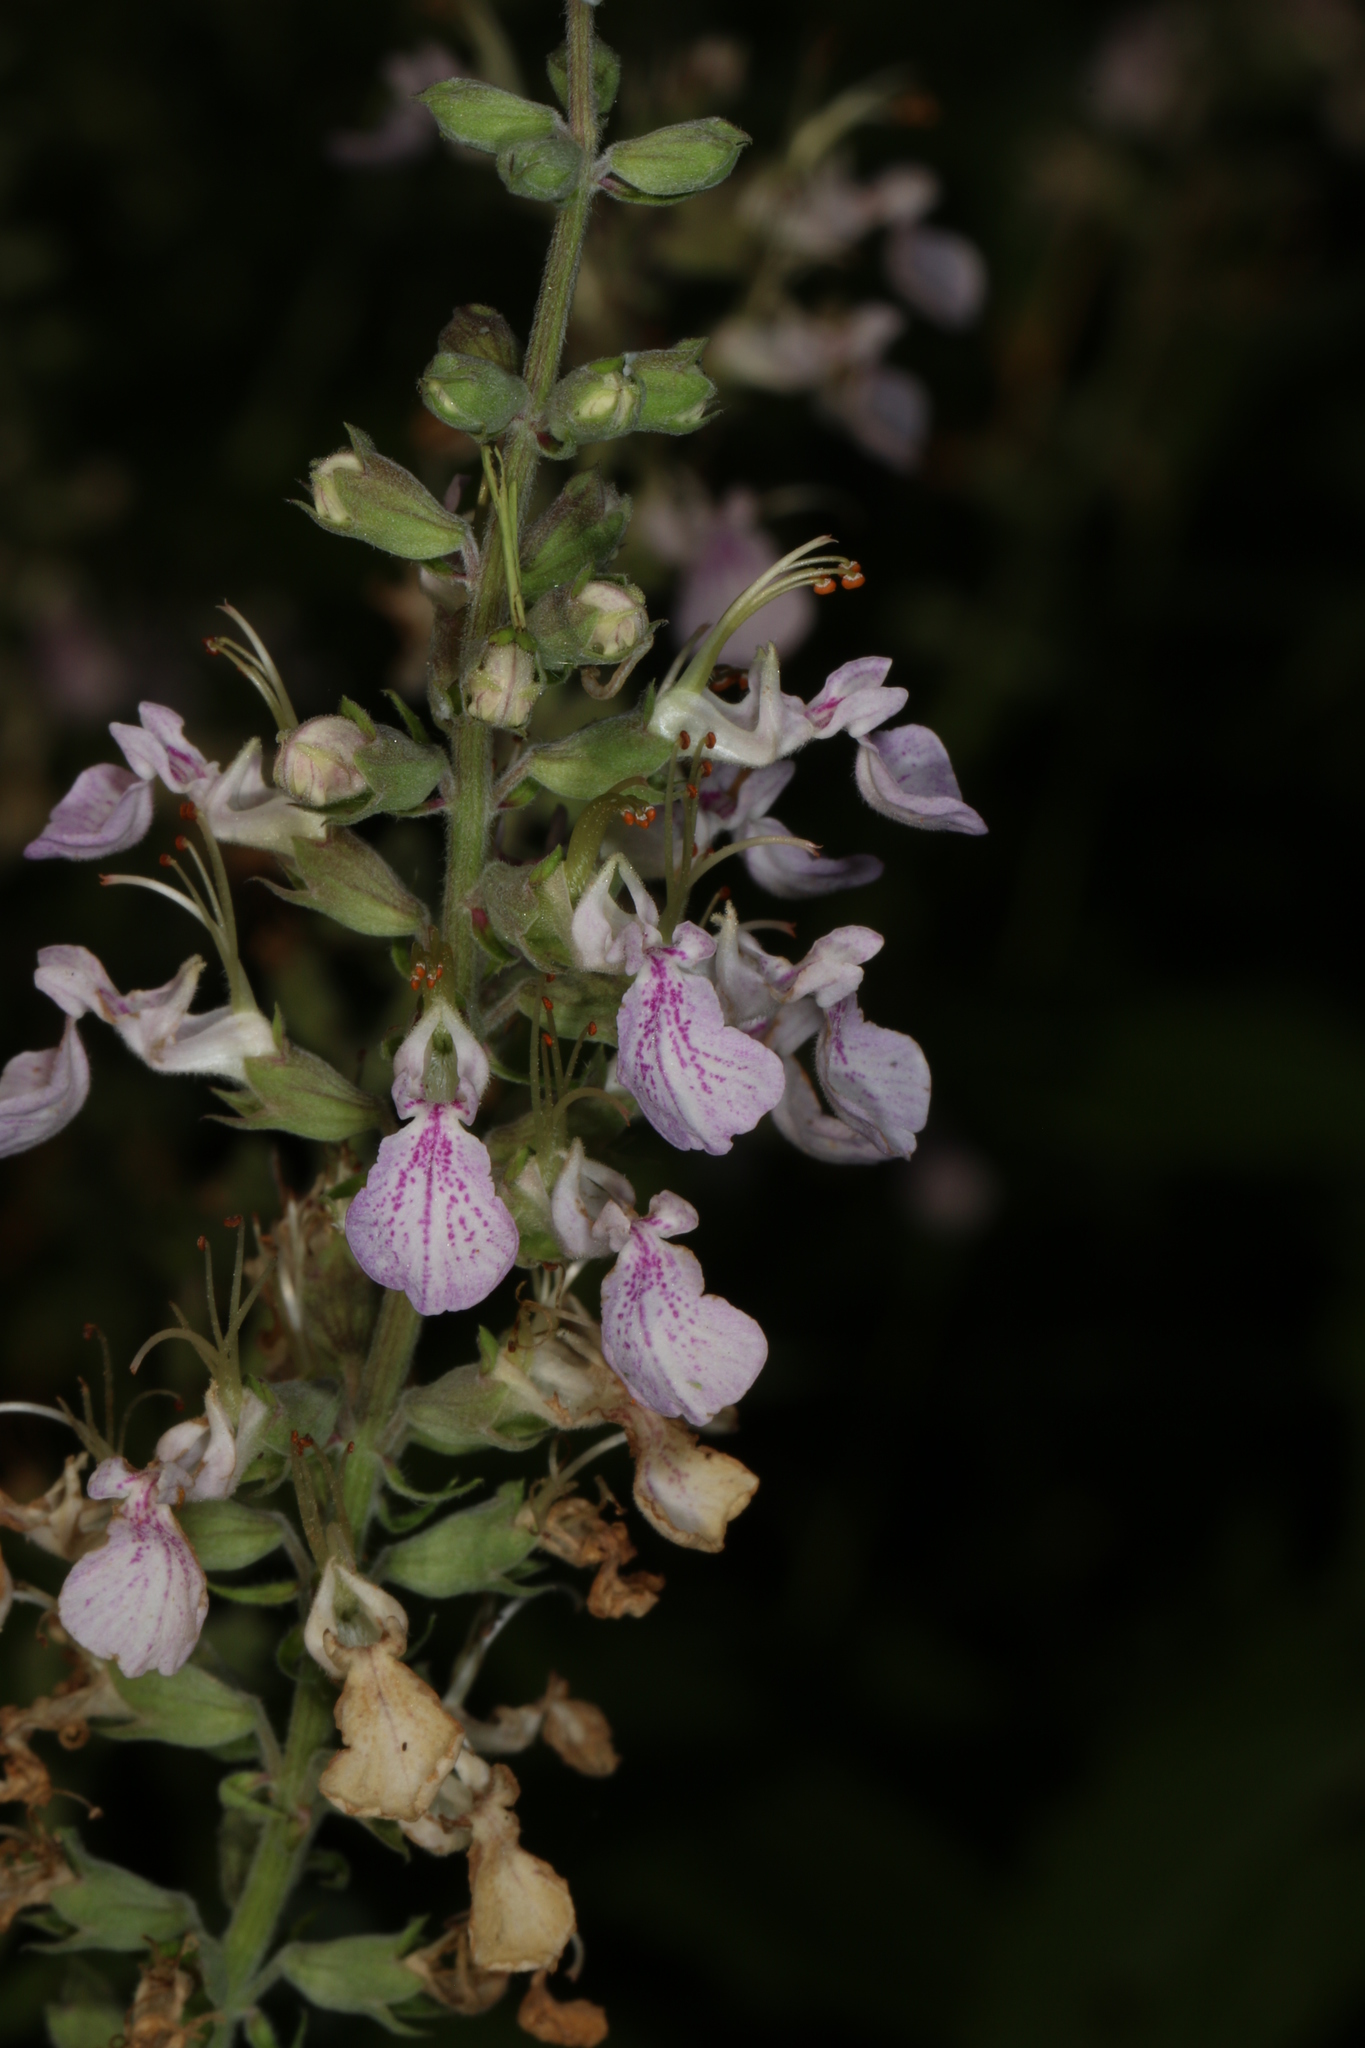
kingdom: Plantae
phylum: Tracheophyta
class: Magnoliopsida
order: Lamiales
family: Lamiaceae
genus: Teucrium
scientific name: Teucrium canadense
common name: American germander
